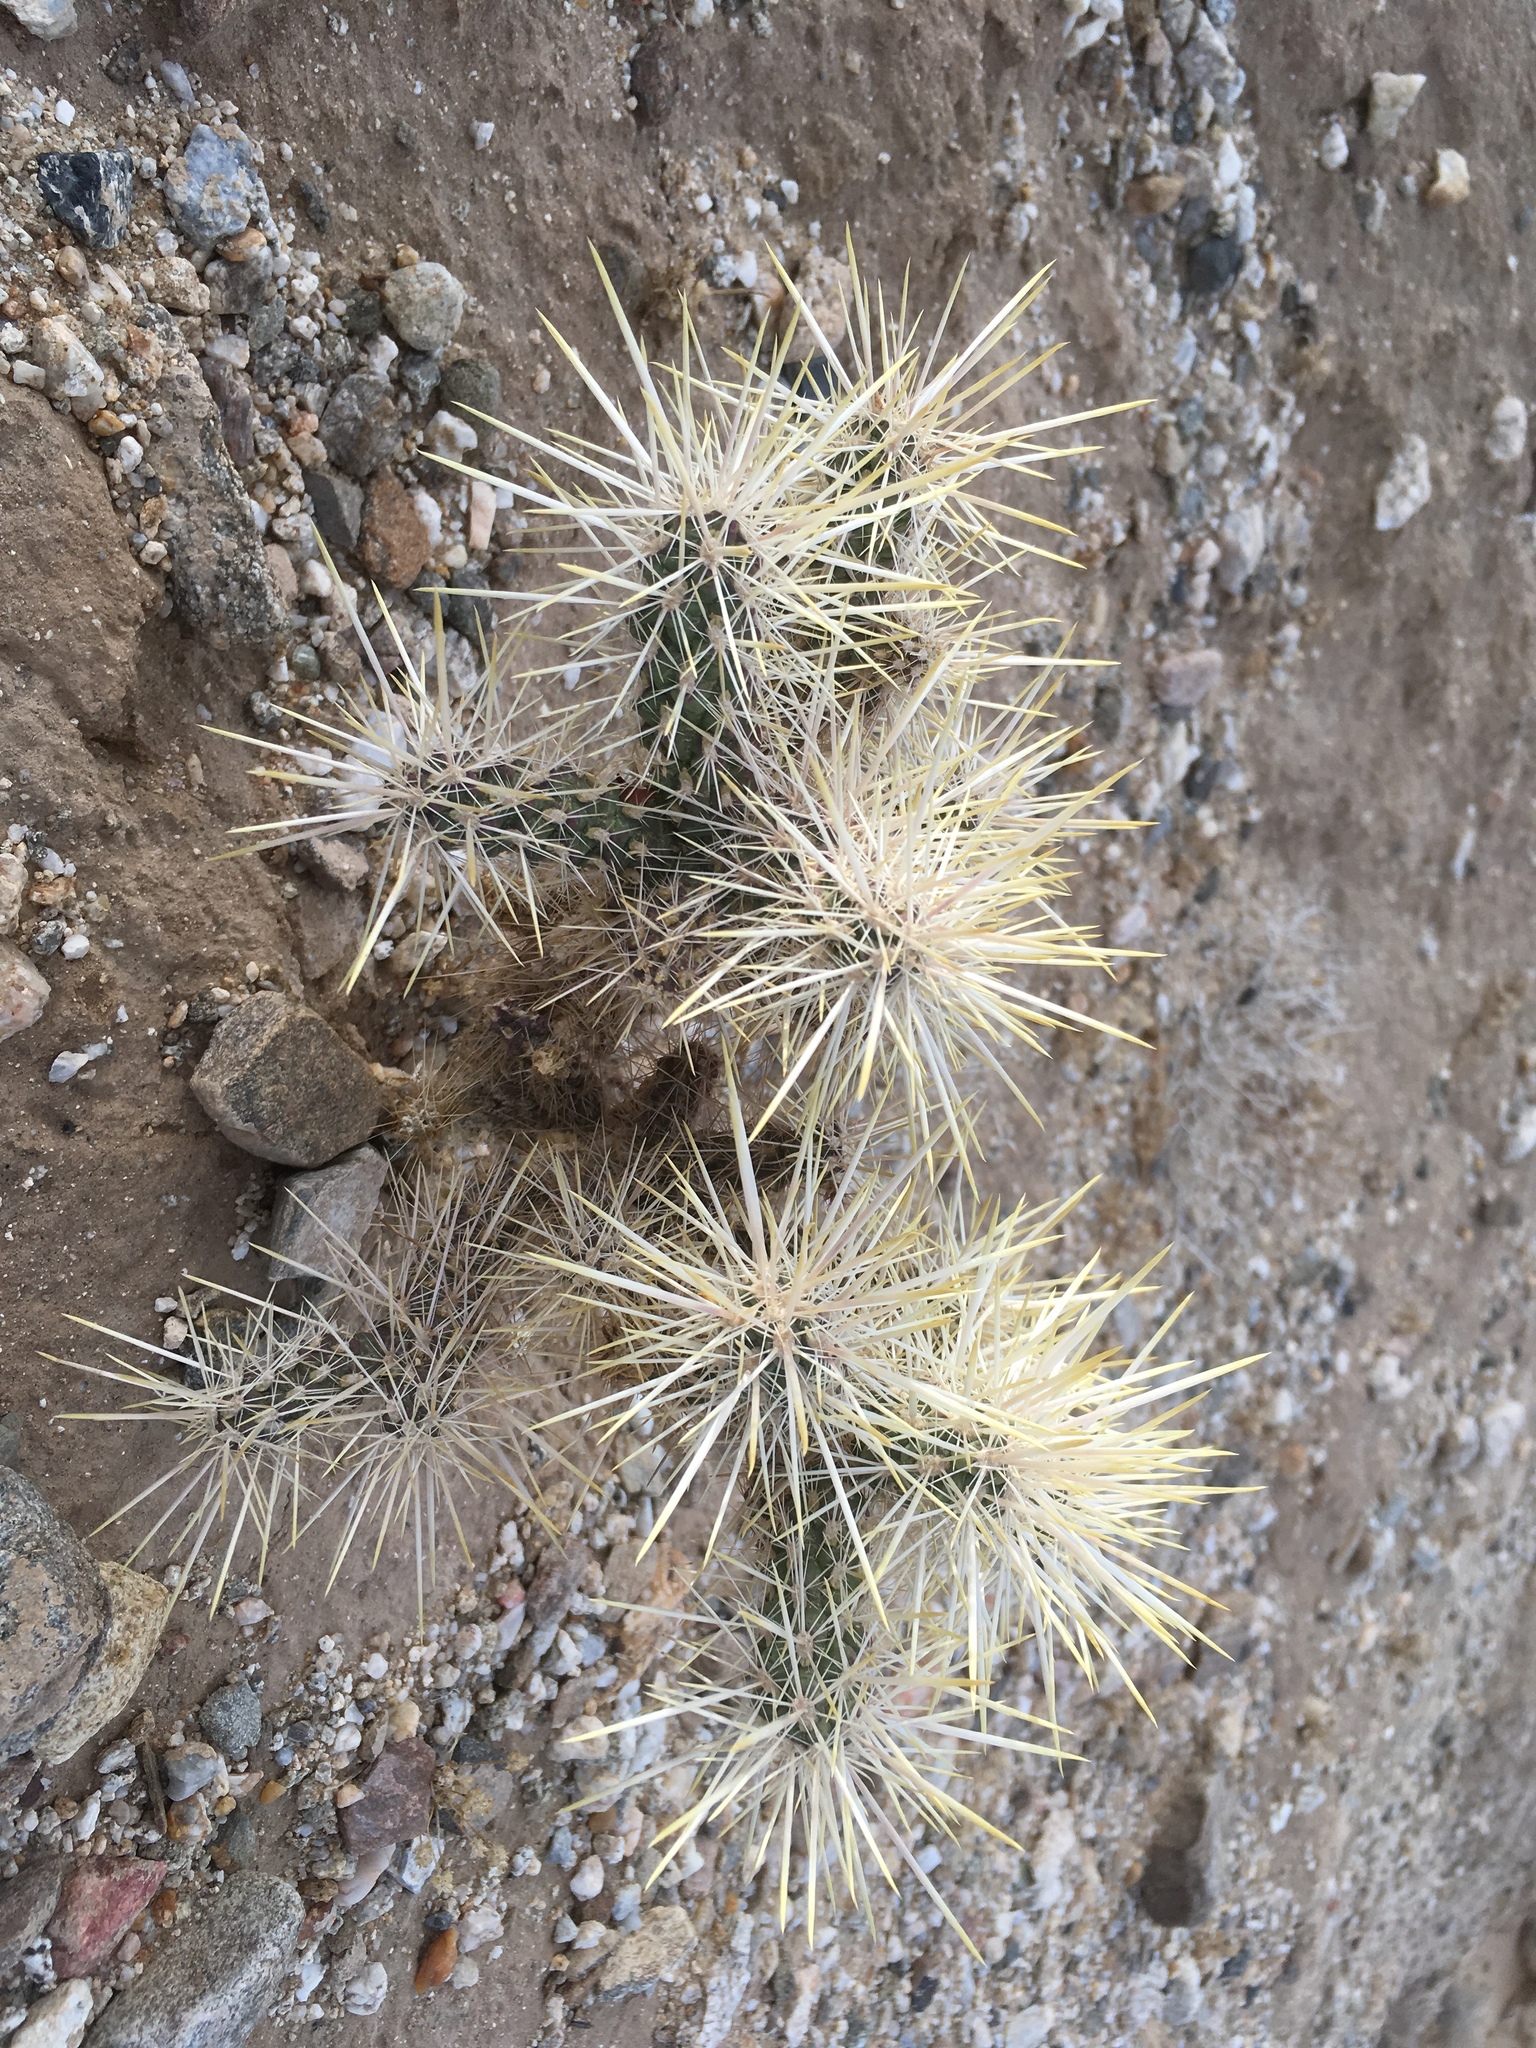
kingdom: Plantae
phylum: Tracheophyta
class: Magnoliopsida
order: Caryophyllales
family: Cactaceae
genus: Cylindropuntia
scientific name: Cylindropuntia echinocarpa
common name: Ground cholla
